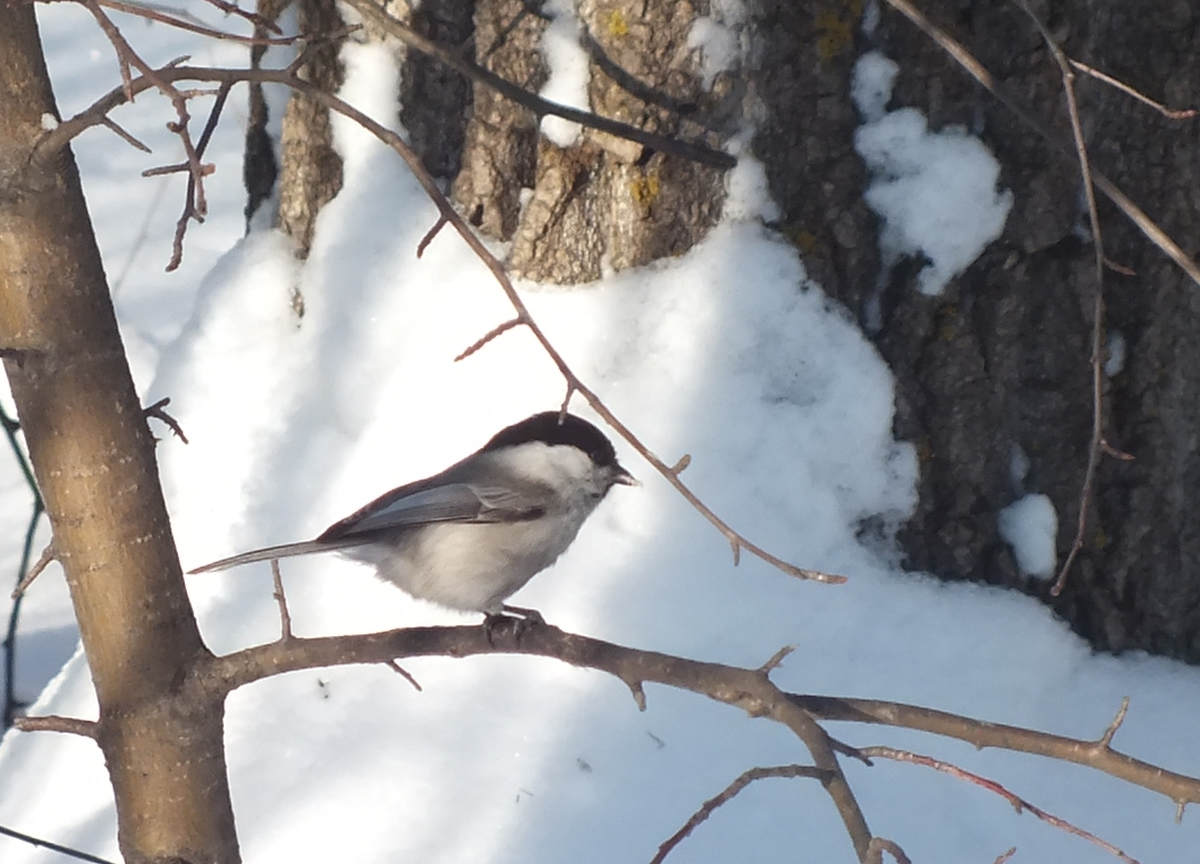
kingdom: Animalia
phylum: Chordata
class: Aves
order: Passeriformes
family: Paridae
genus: Poecile
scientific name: Poecile montanus
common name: Willow tit
